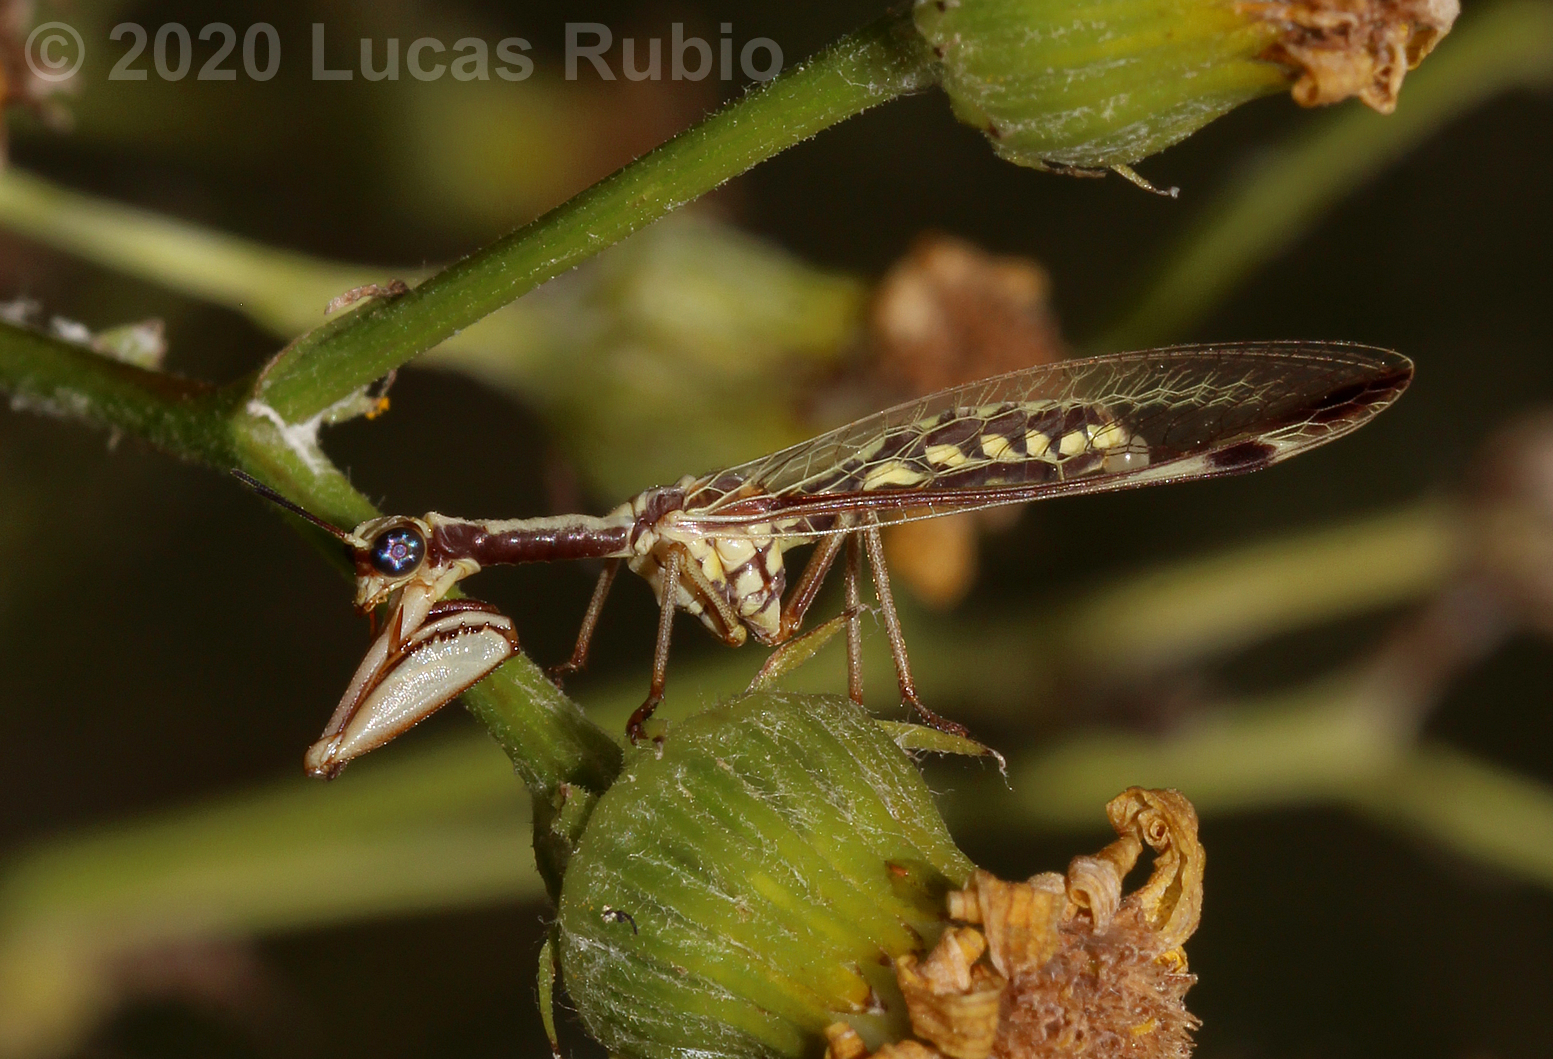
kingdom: Animalia
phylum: Arthropoda
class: Insecta
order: Neuroptera
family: Mantispidae
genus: Paramantispa
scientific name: Paramantispa prolixa
